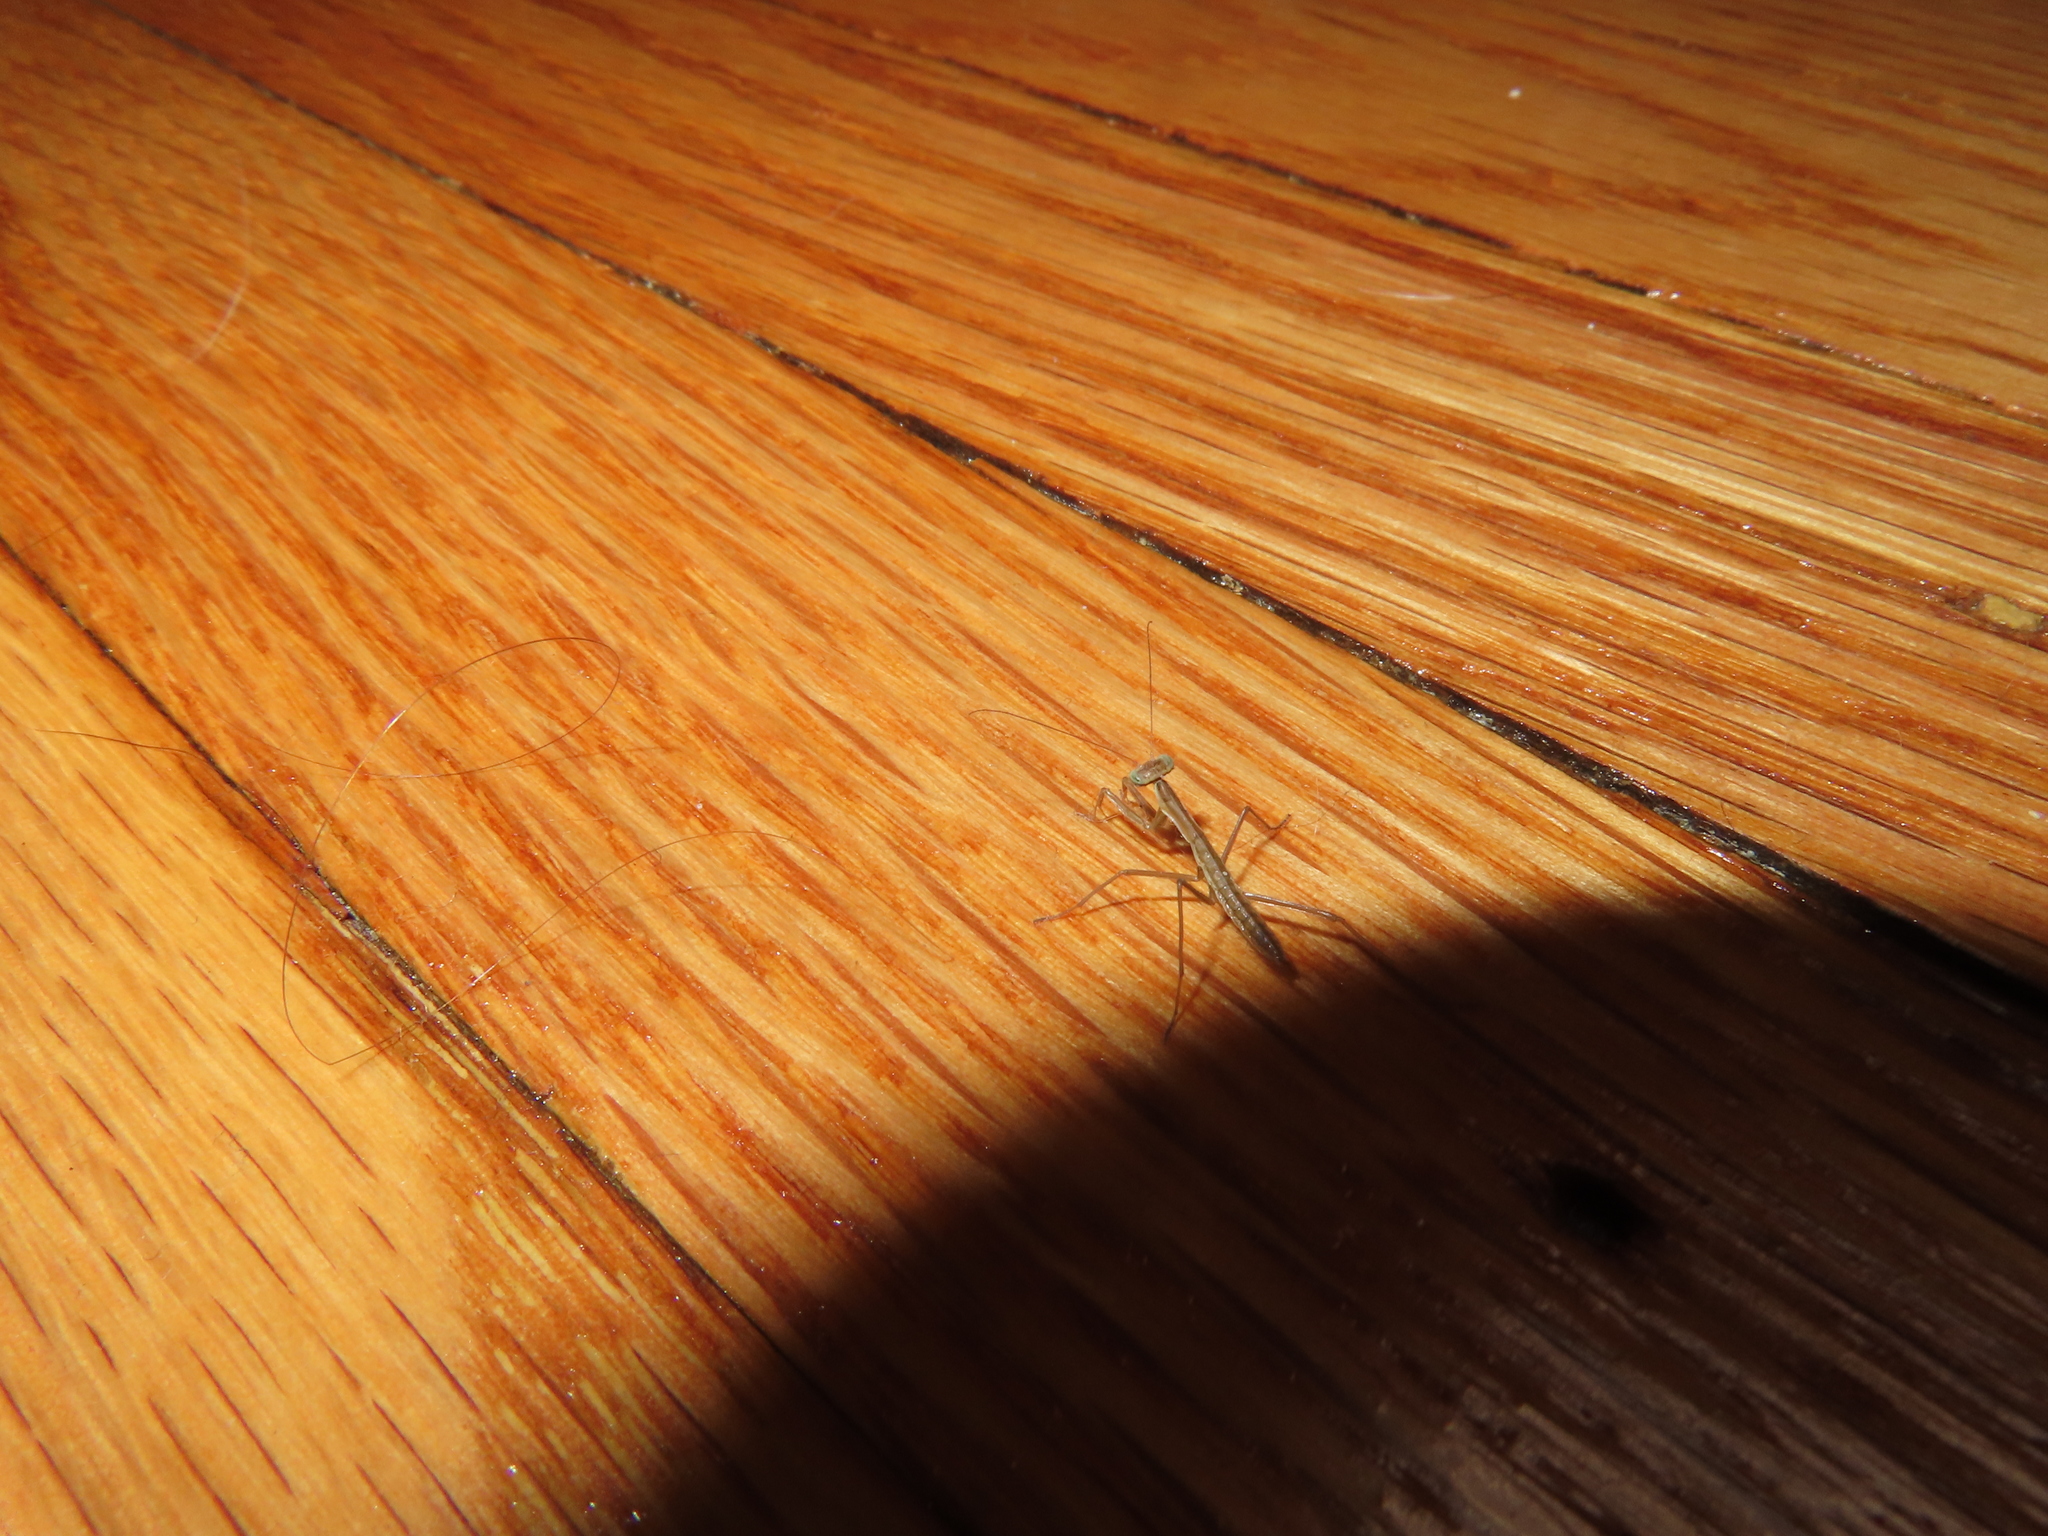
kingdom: Animalia
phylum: Arthropoda
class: Insecta
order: Mantodea
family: Mantidae
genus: Tenodera
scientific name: Tenodera sinensis
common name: Chinese mantis
